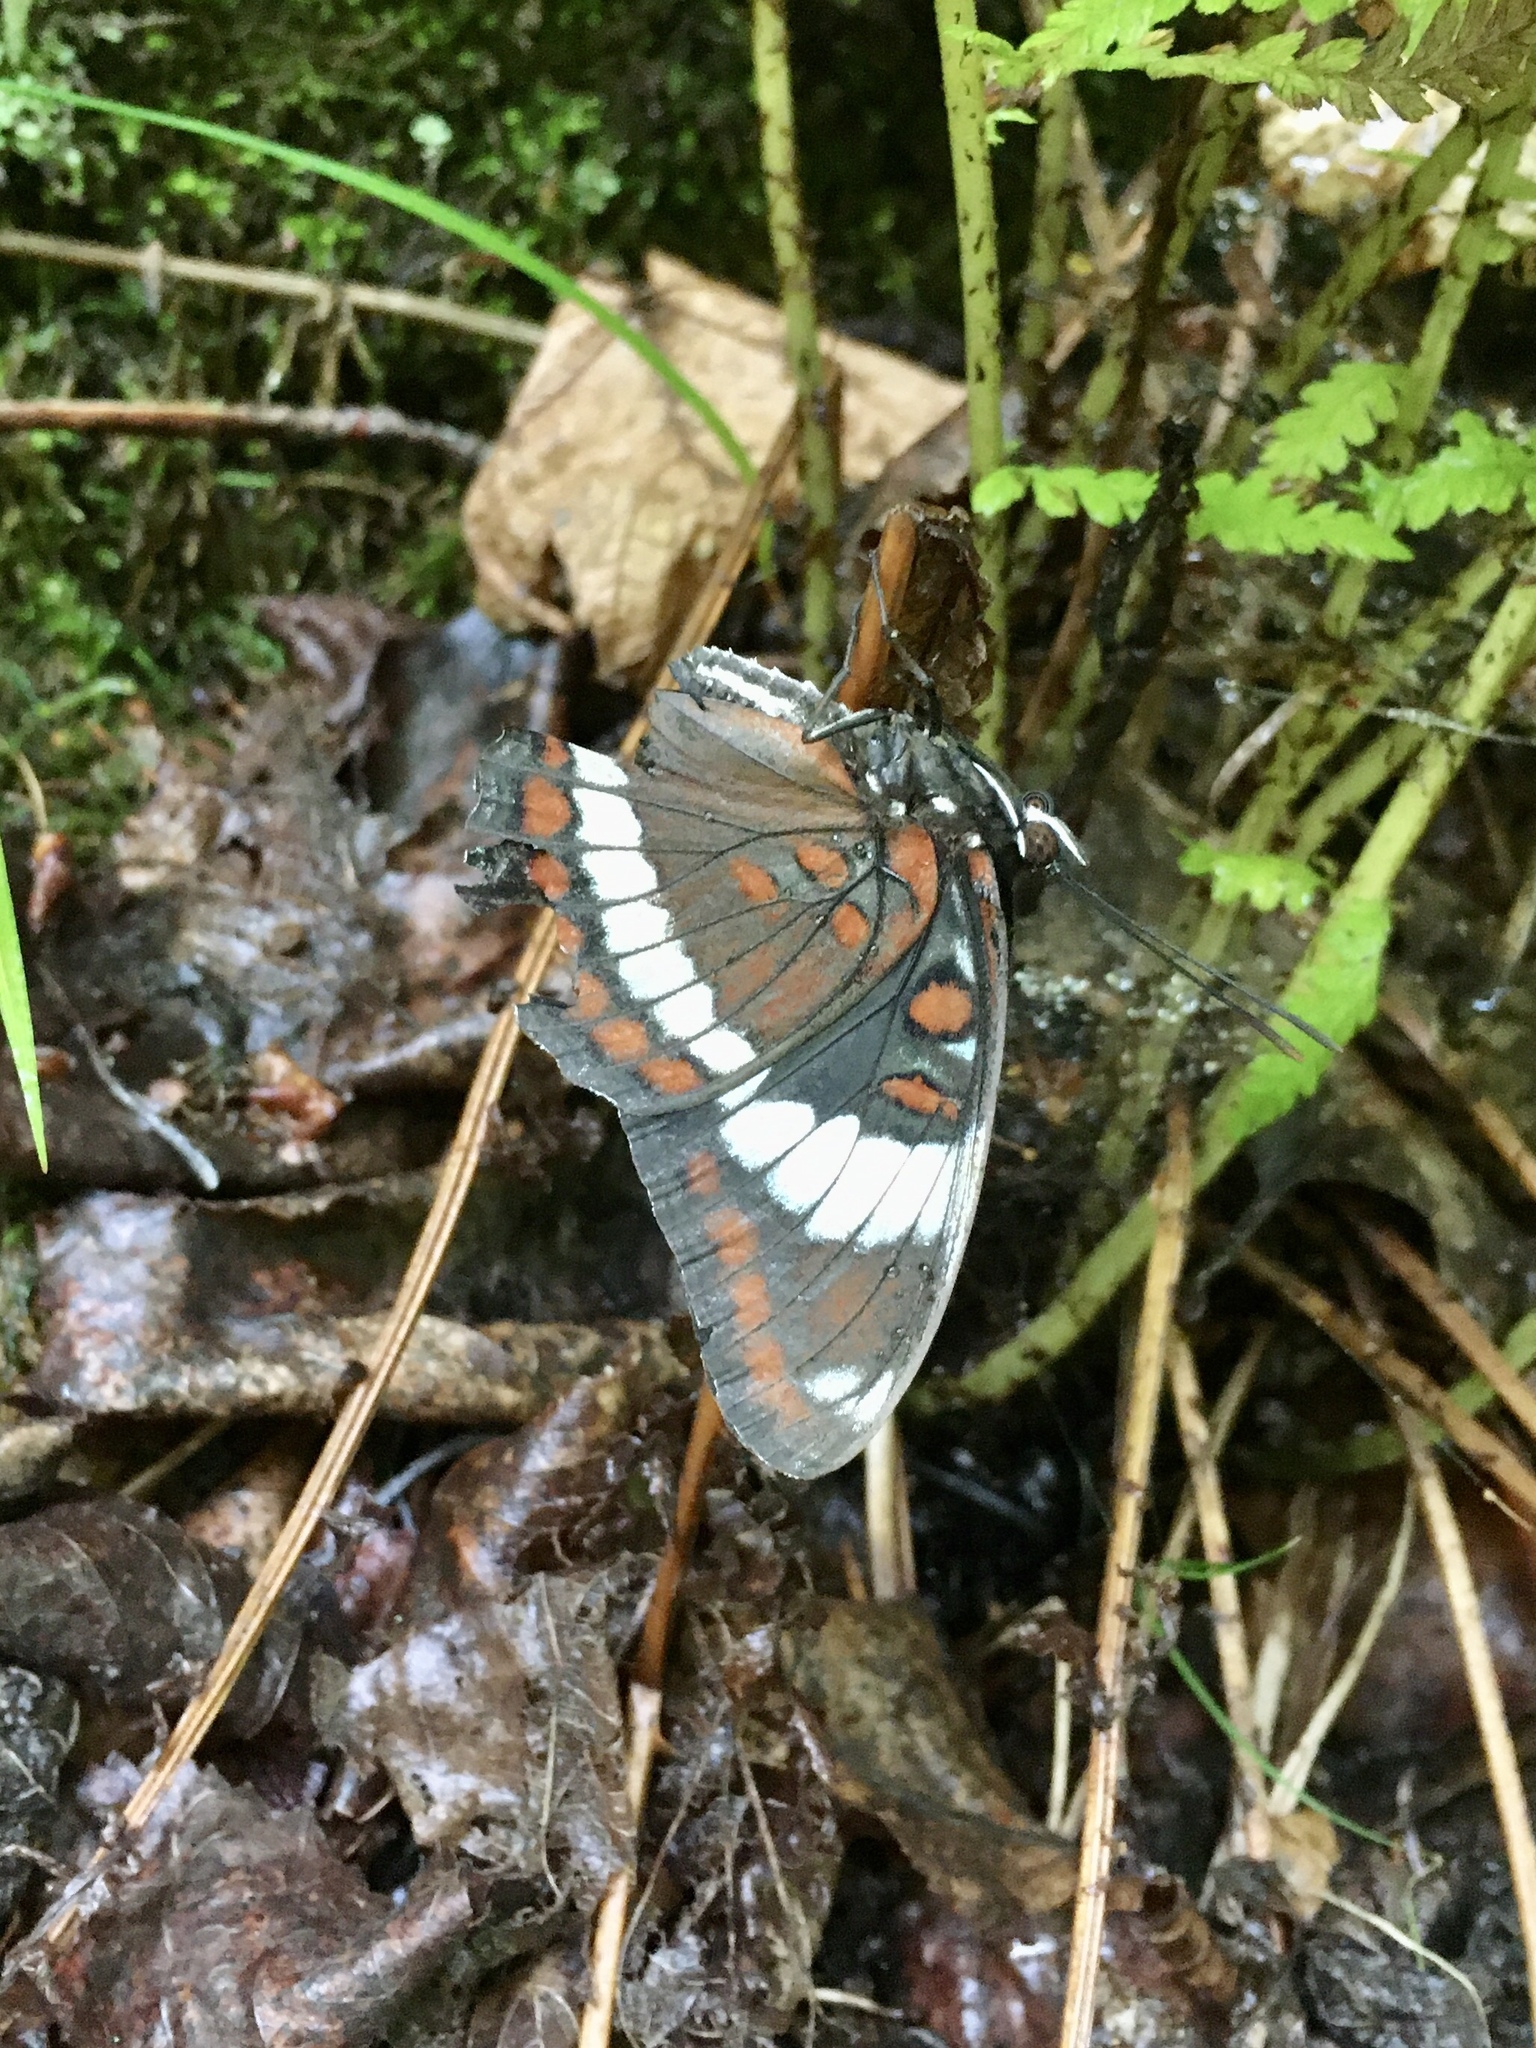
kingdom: Animalia
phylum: Arthropoda
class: Insecta
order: Lepidoptera
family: Nymphalidae
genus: Limenitis
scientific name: Limenitis arthemis
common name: Red-spotted admiral
